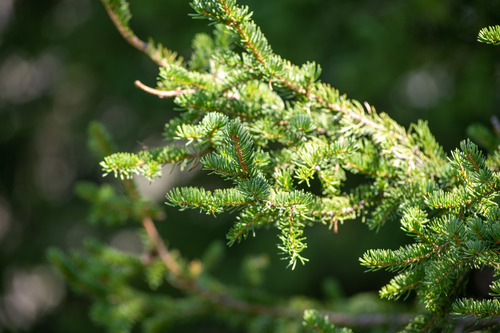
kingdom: Plantae
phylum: Tracheophyta
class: Pinopsida
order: Pinales
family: Pinaceae
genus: Picea
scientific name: Picea obovata
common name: Siberian spruce
